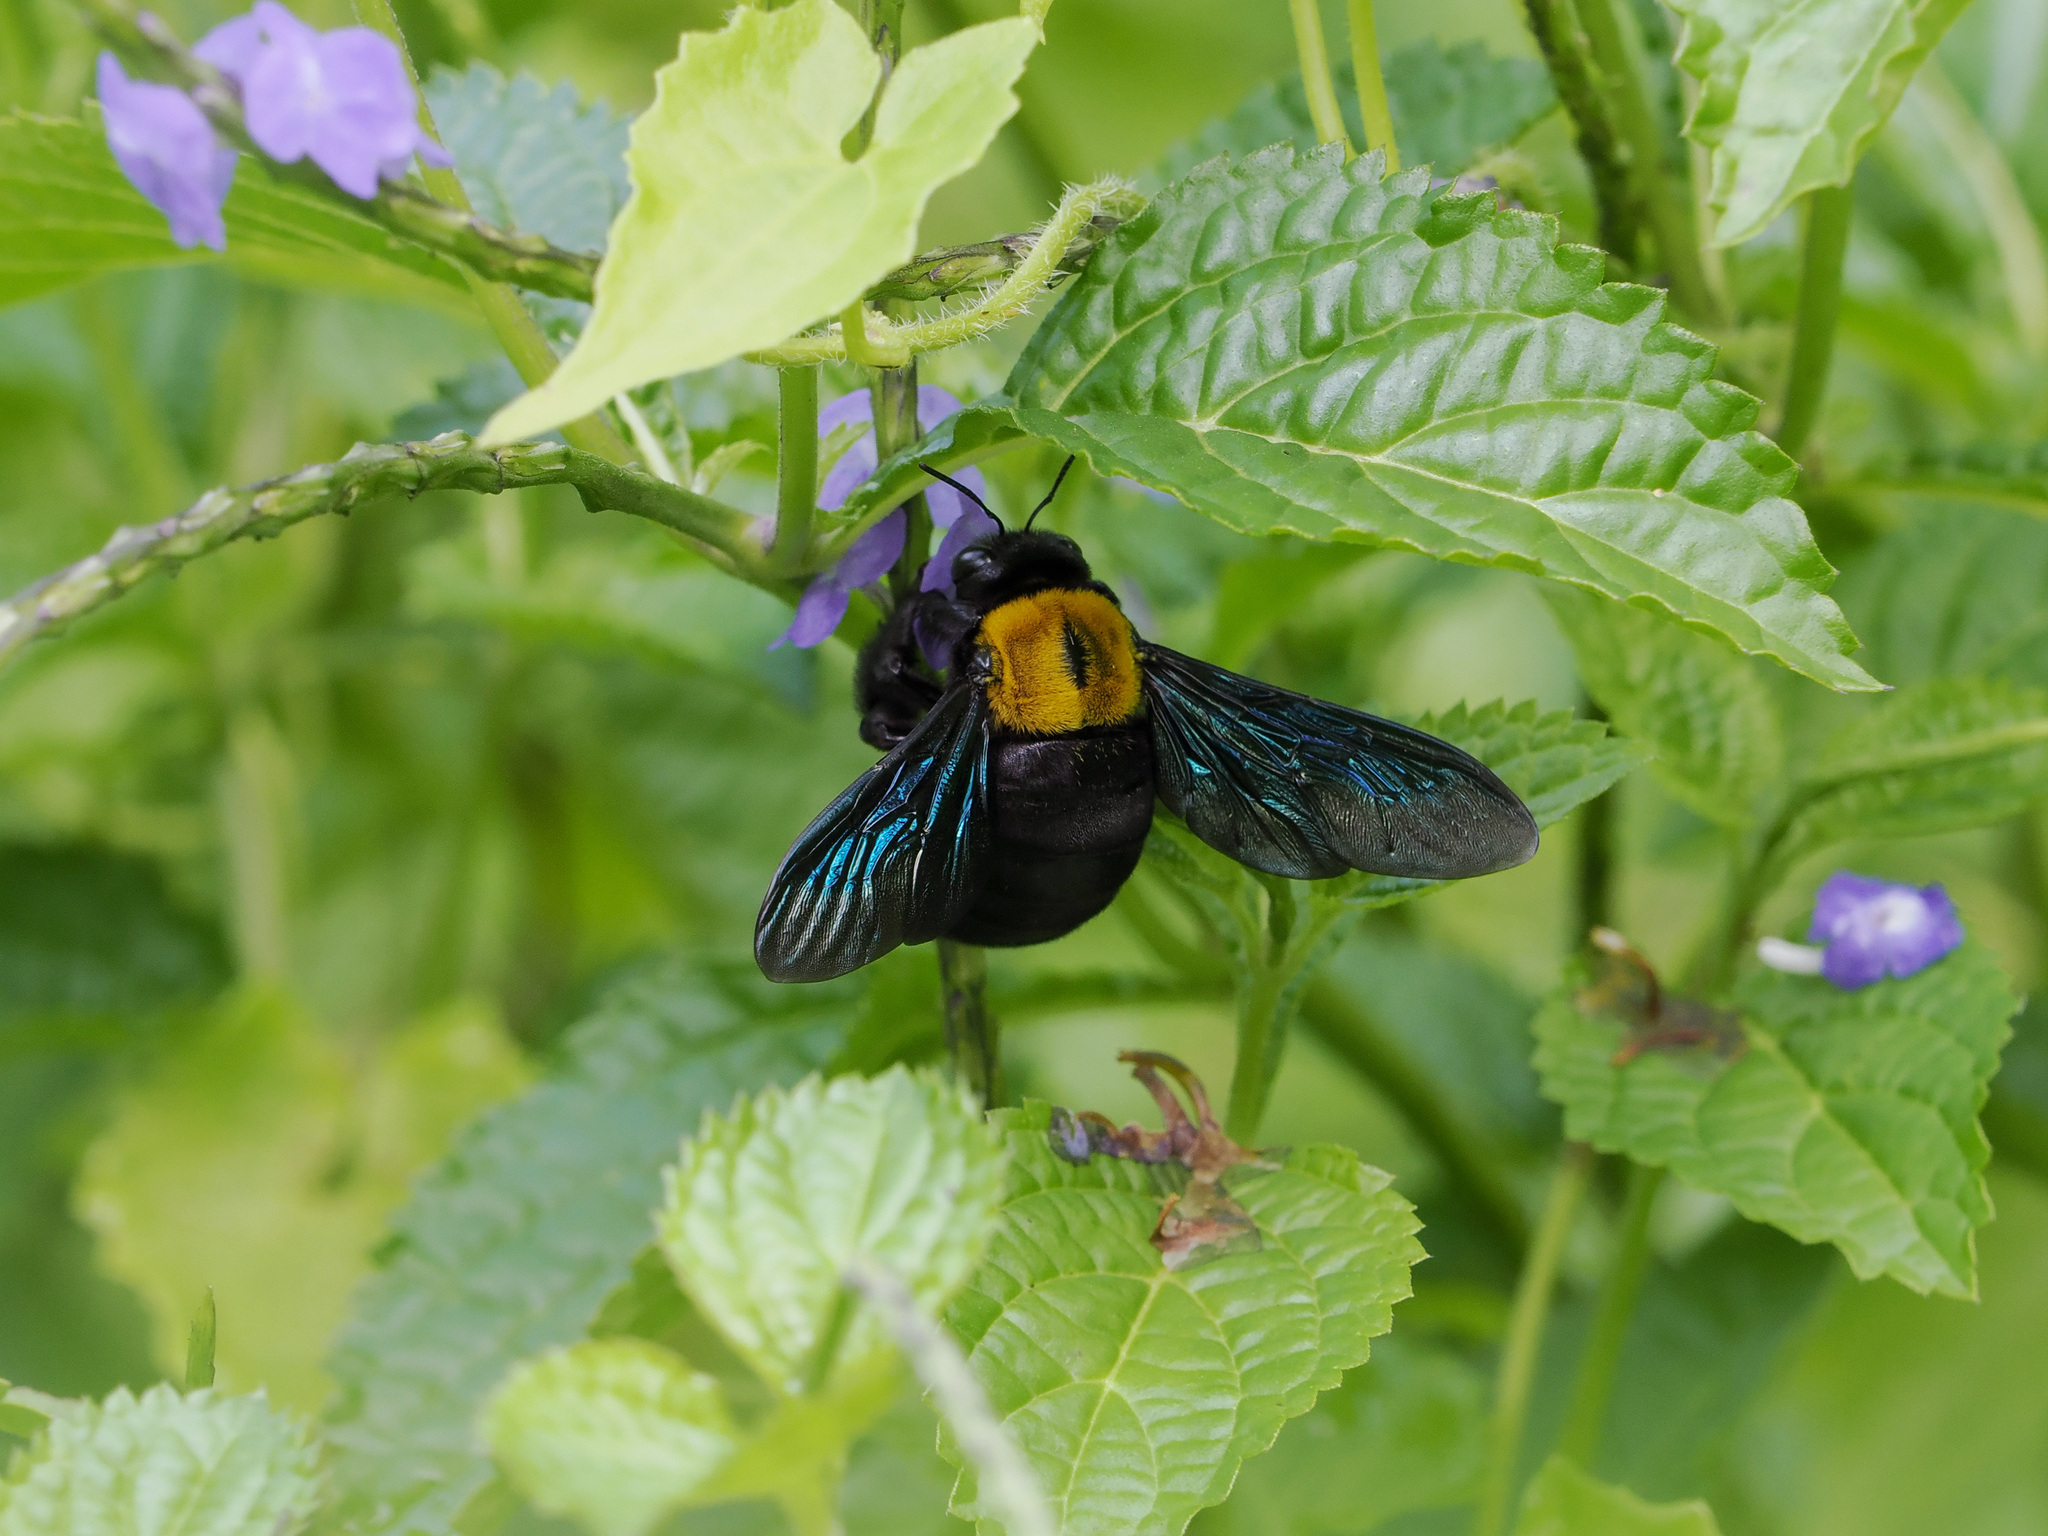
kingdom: Animalia
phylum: Arthropoda
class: Insecta
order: Hymenoptera
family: Apidae
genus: Xylocopa
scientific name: Xylocopa aestuans
